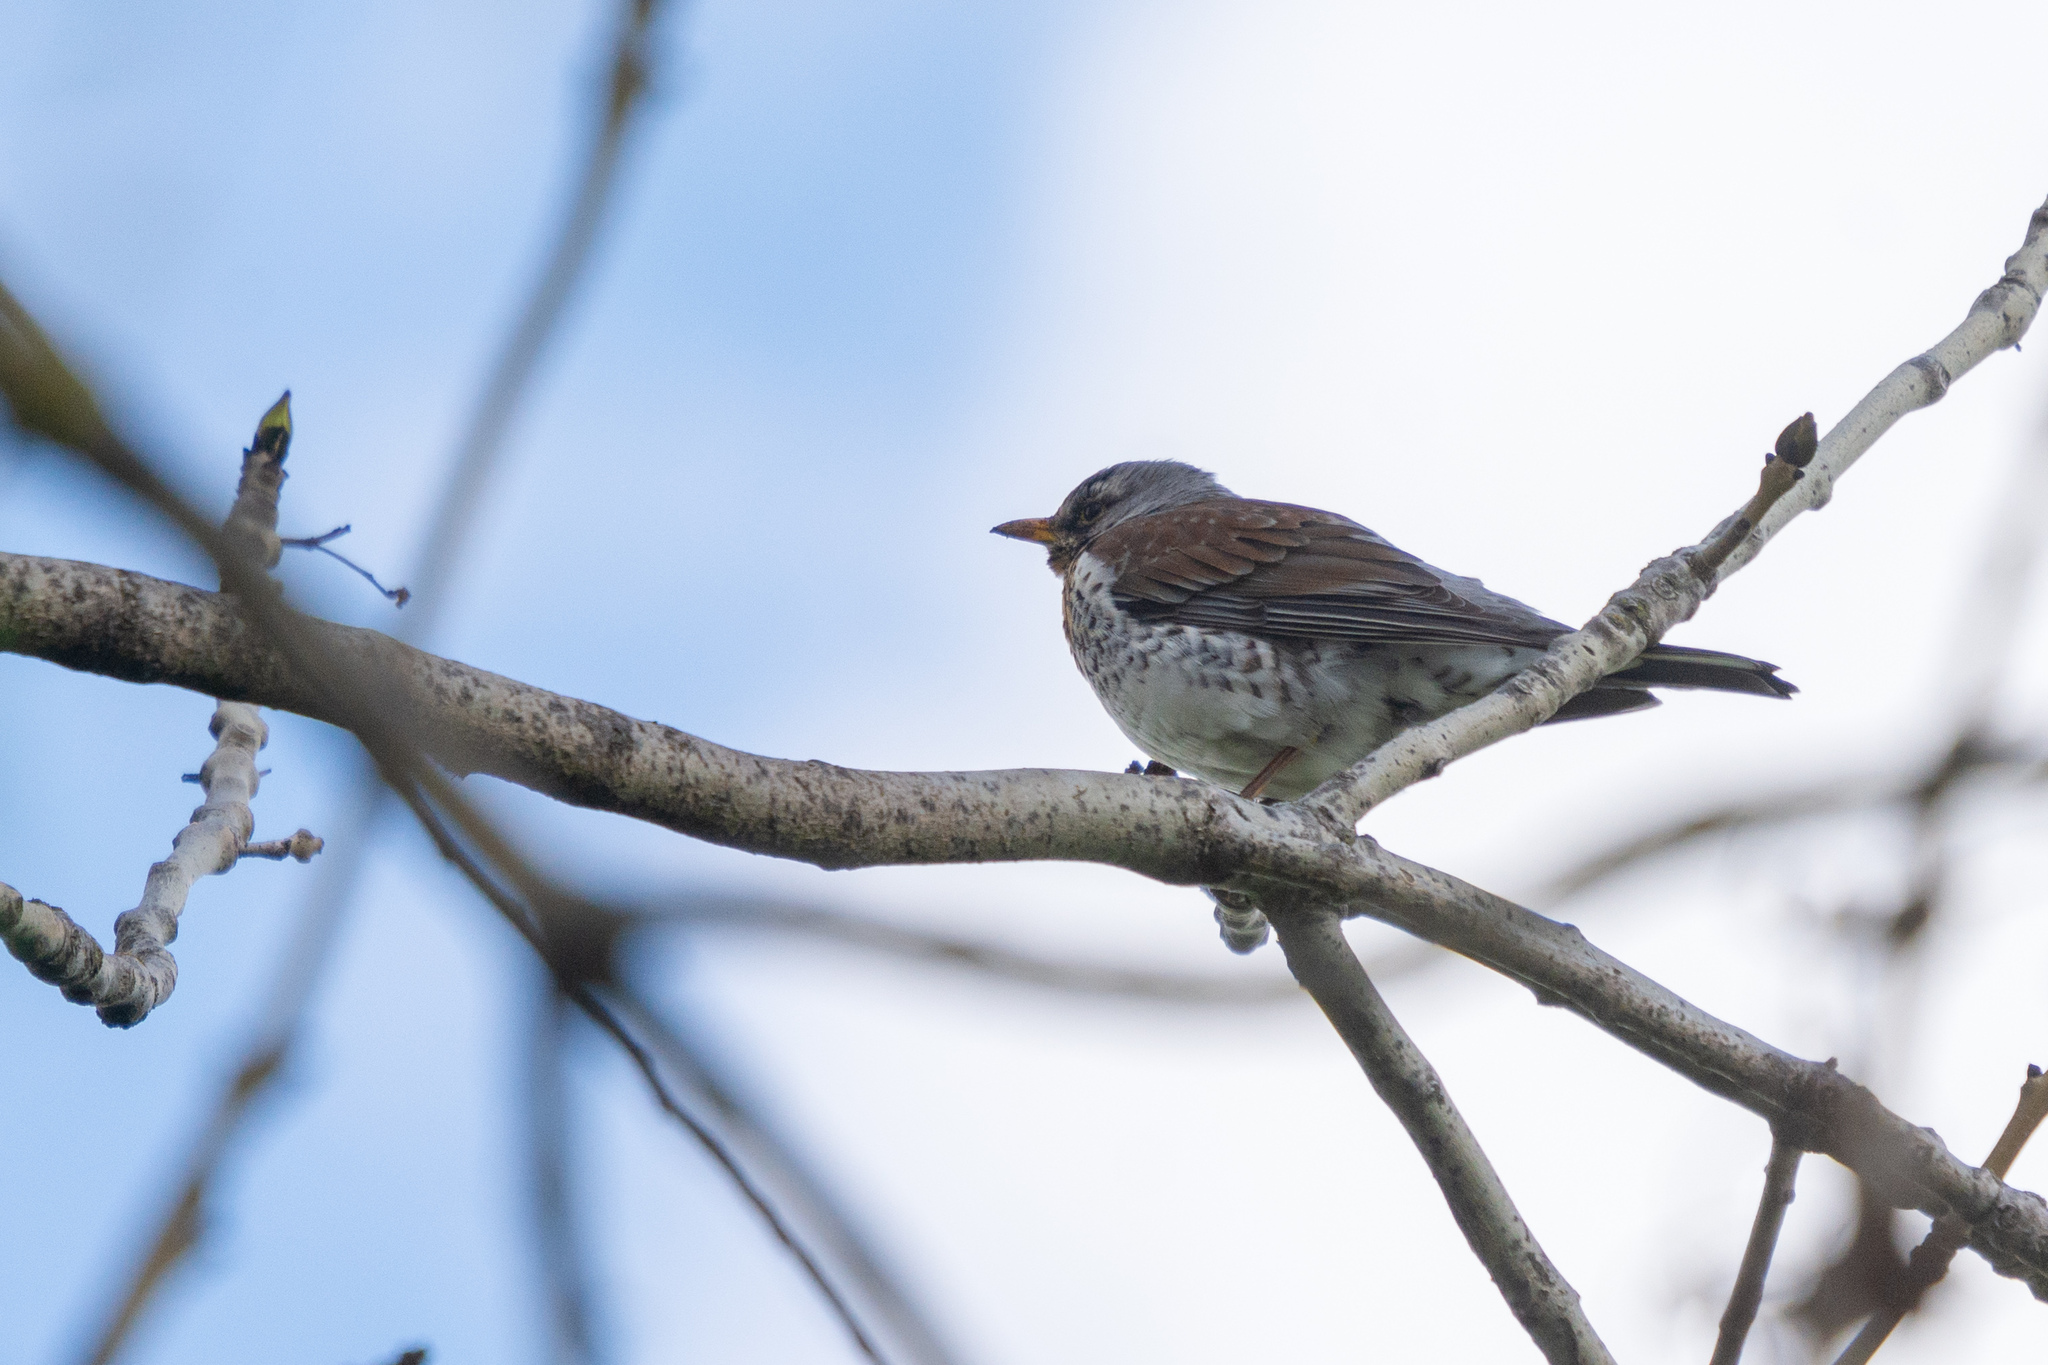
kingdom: Animalia
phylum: Chordata
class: Aves
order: Passeriformes
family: Turdidae
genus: Turdus
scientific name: Turdus pilaris
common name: Fieldfare
